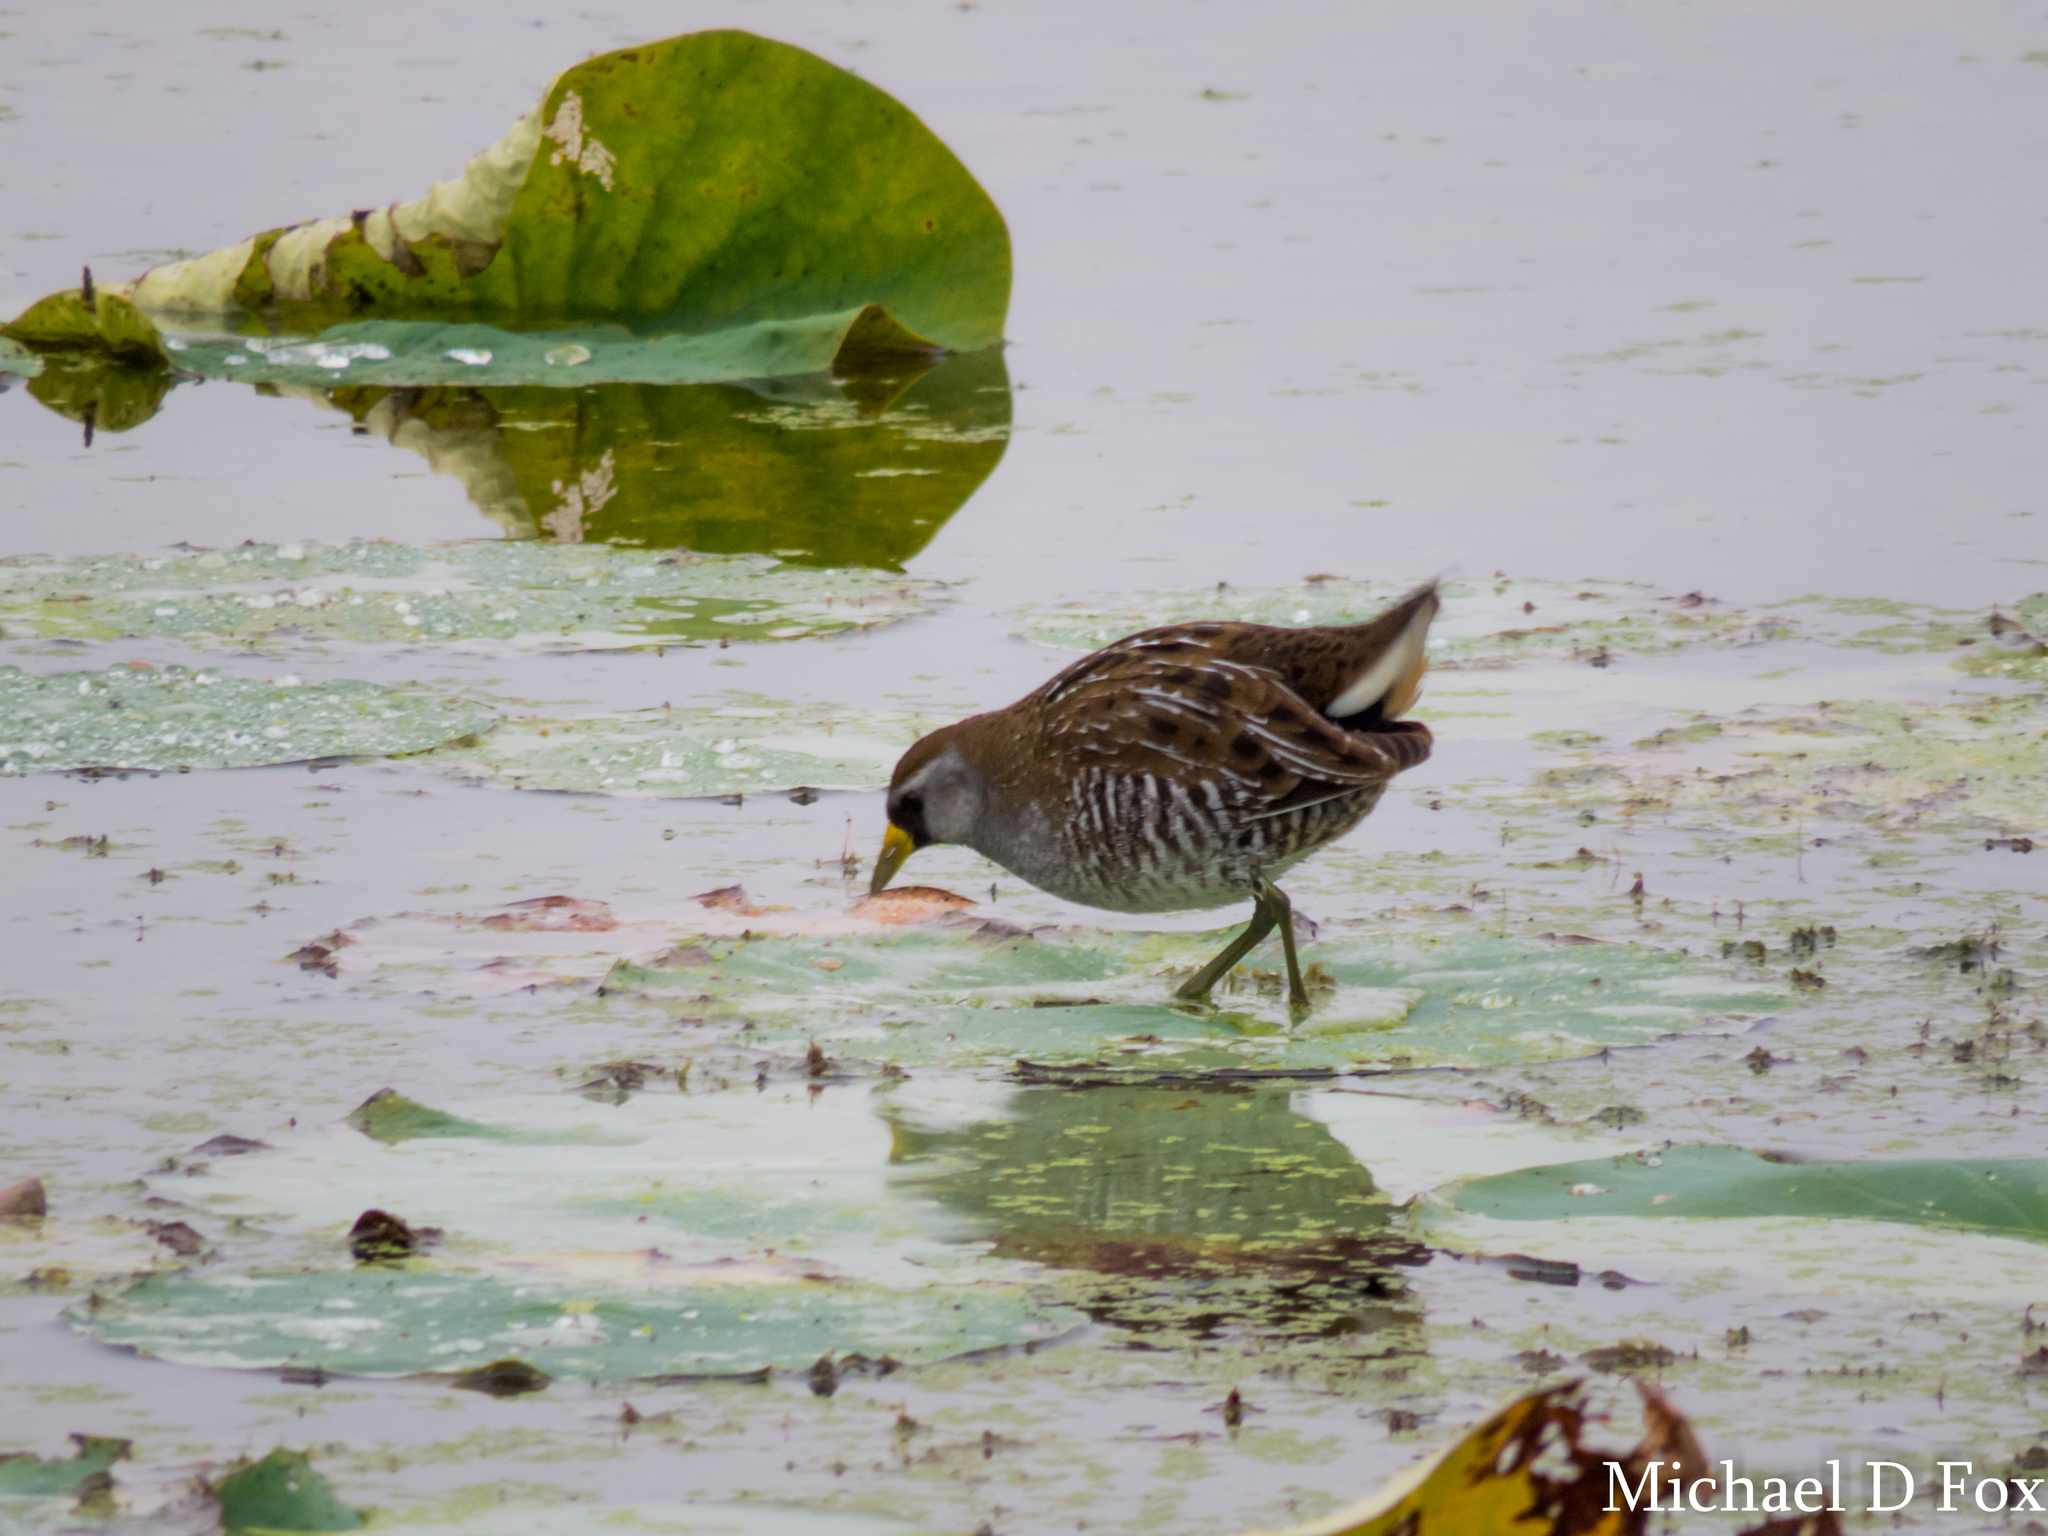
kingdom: Animalia
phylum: Chordata
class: Aves
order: Gruiformes
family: Rallidae
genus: Porzana
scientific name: Porzana carolina
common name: Sora
